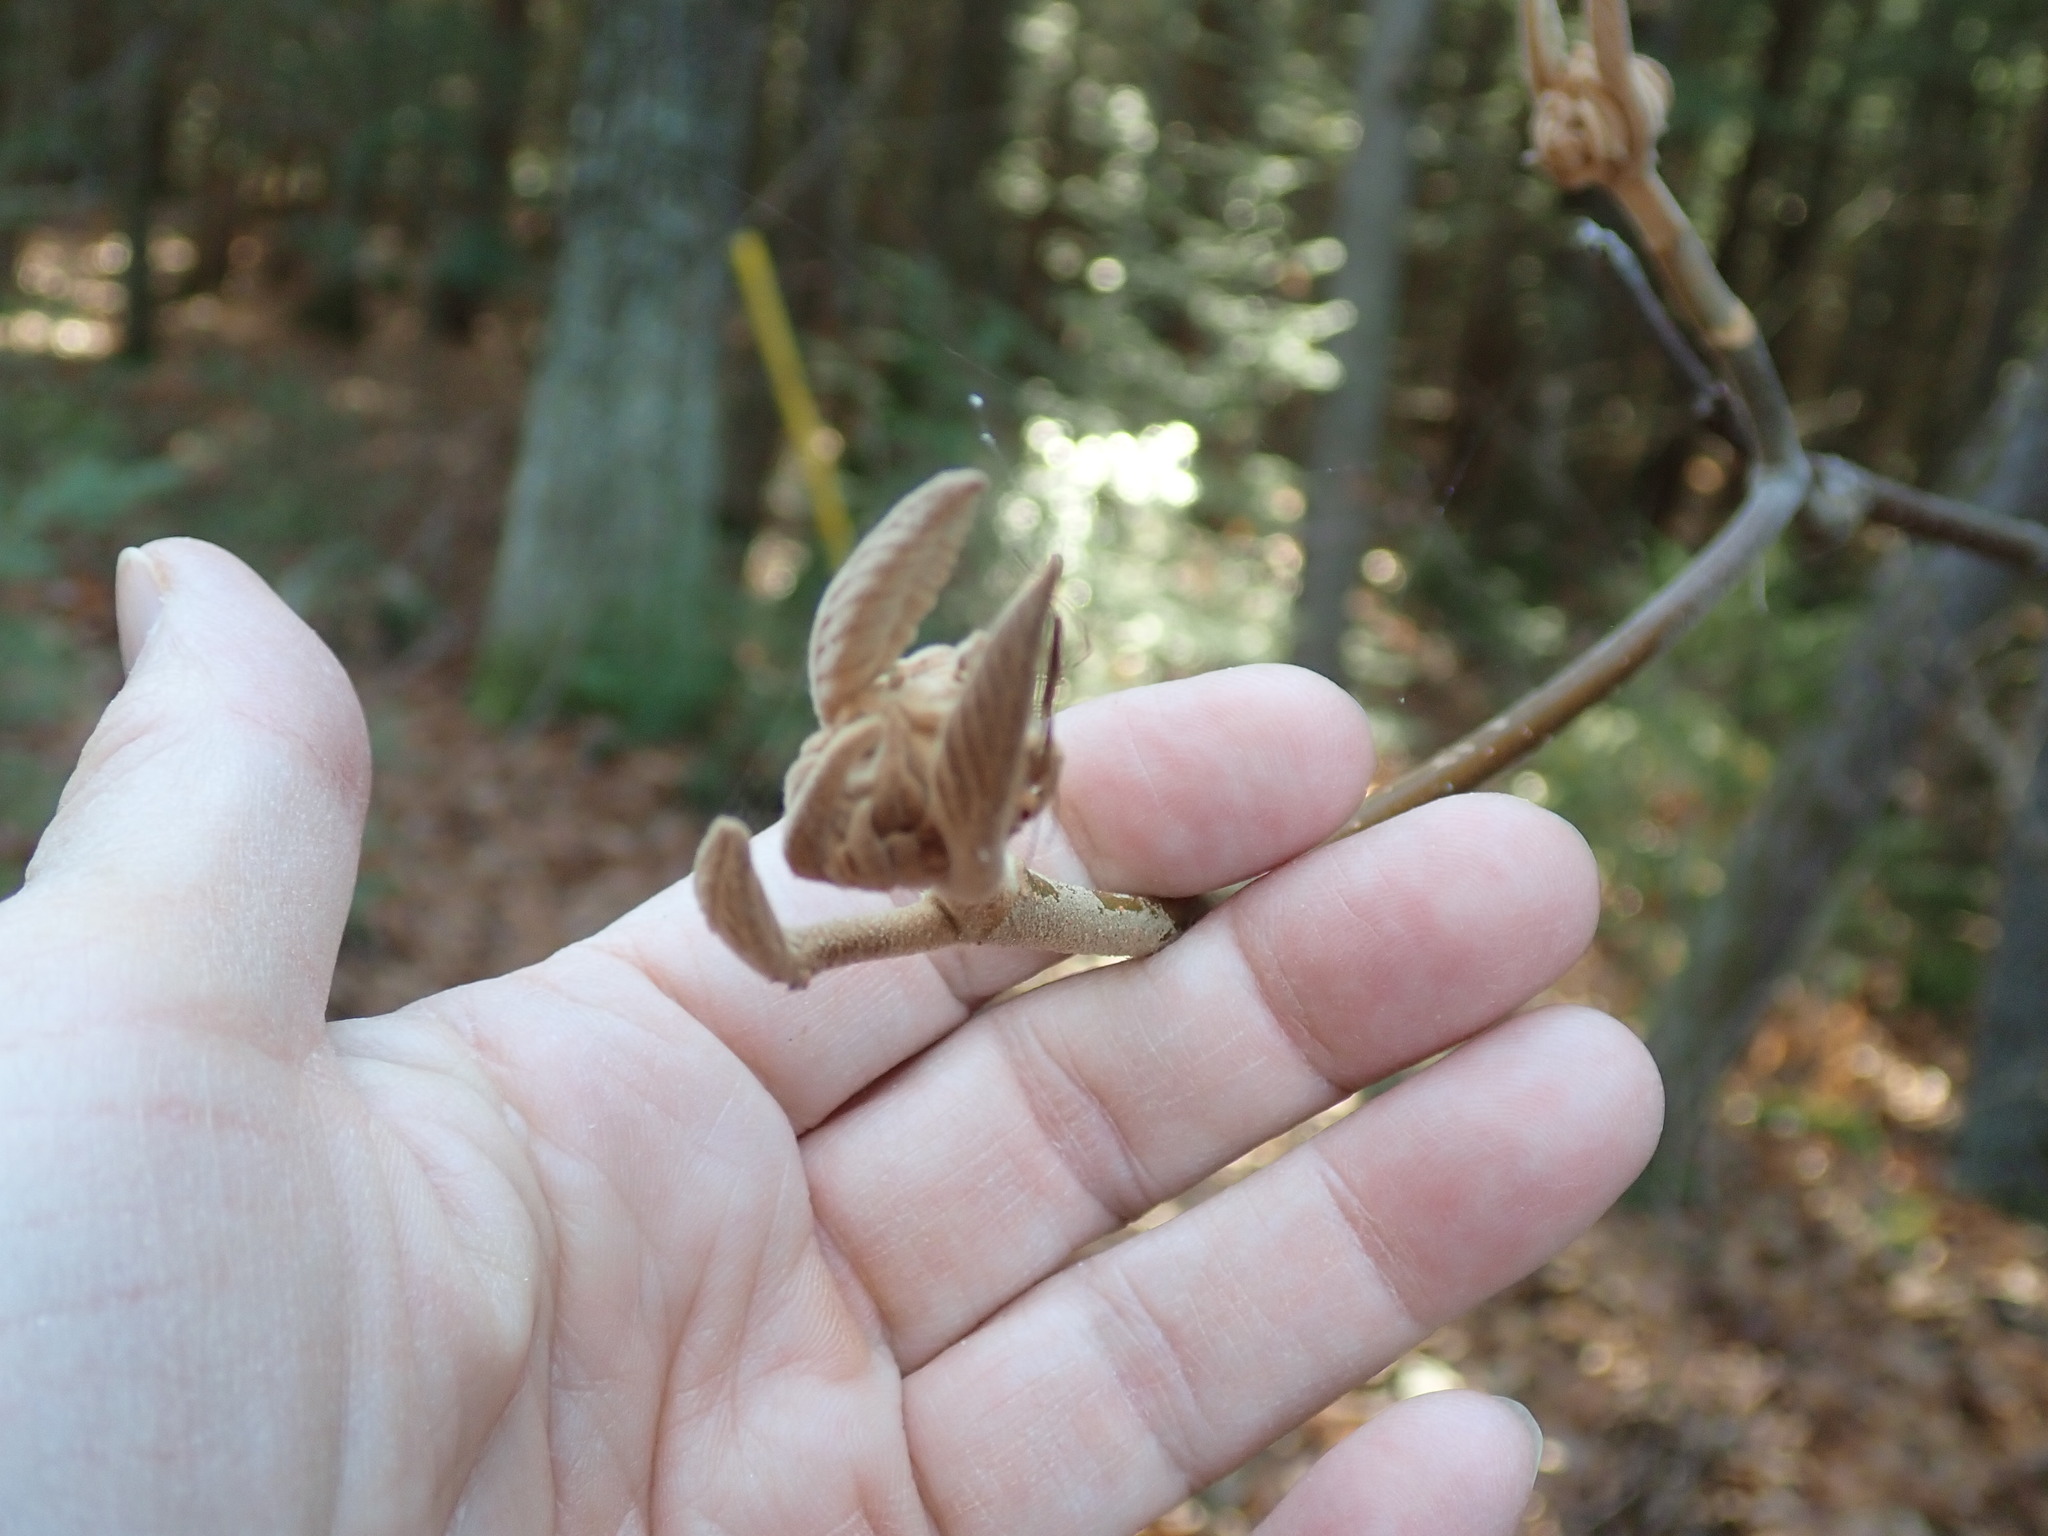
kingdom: Plantae
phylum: Tracheophyta
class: Magnoliopsida
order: Dipsacales
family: Viburnaceae
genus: Viburnum
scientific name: Viburnum lantanoides
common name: Hobblebush
